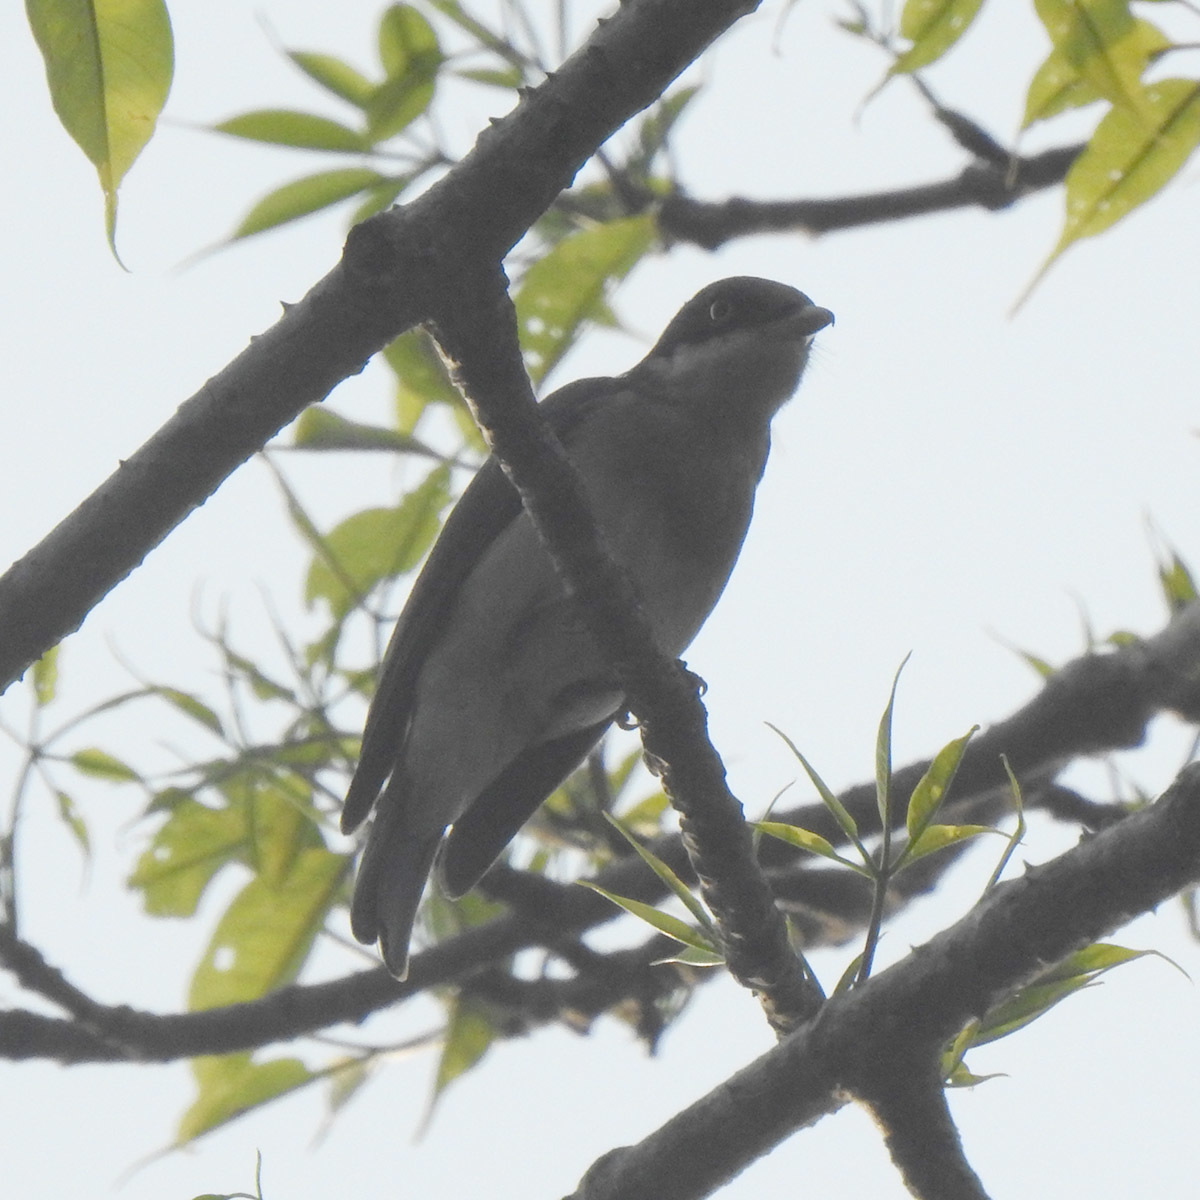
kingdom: Animalia
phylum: Chordata
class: Aves
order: Passeriformes
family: Tephrodornithidae
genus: Tephrodornis
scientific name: Tephrodornis sylvicola
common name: Malabar woodshrike
